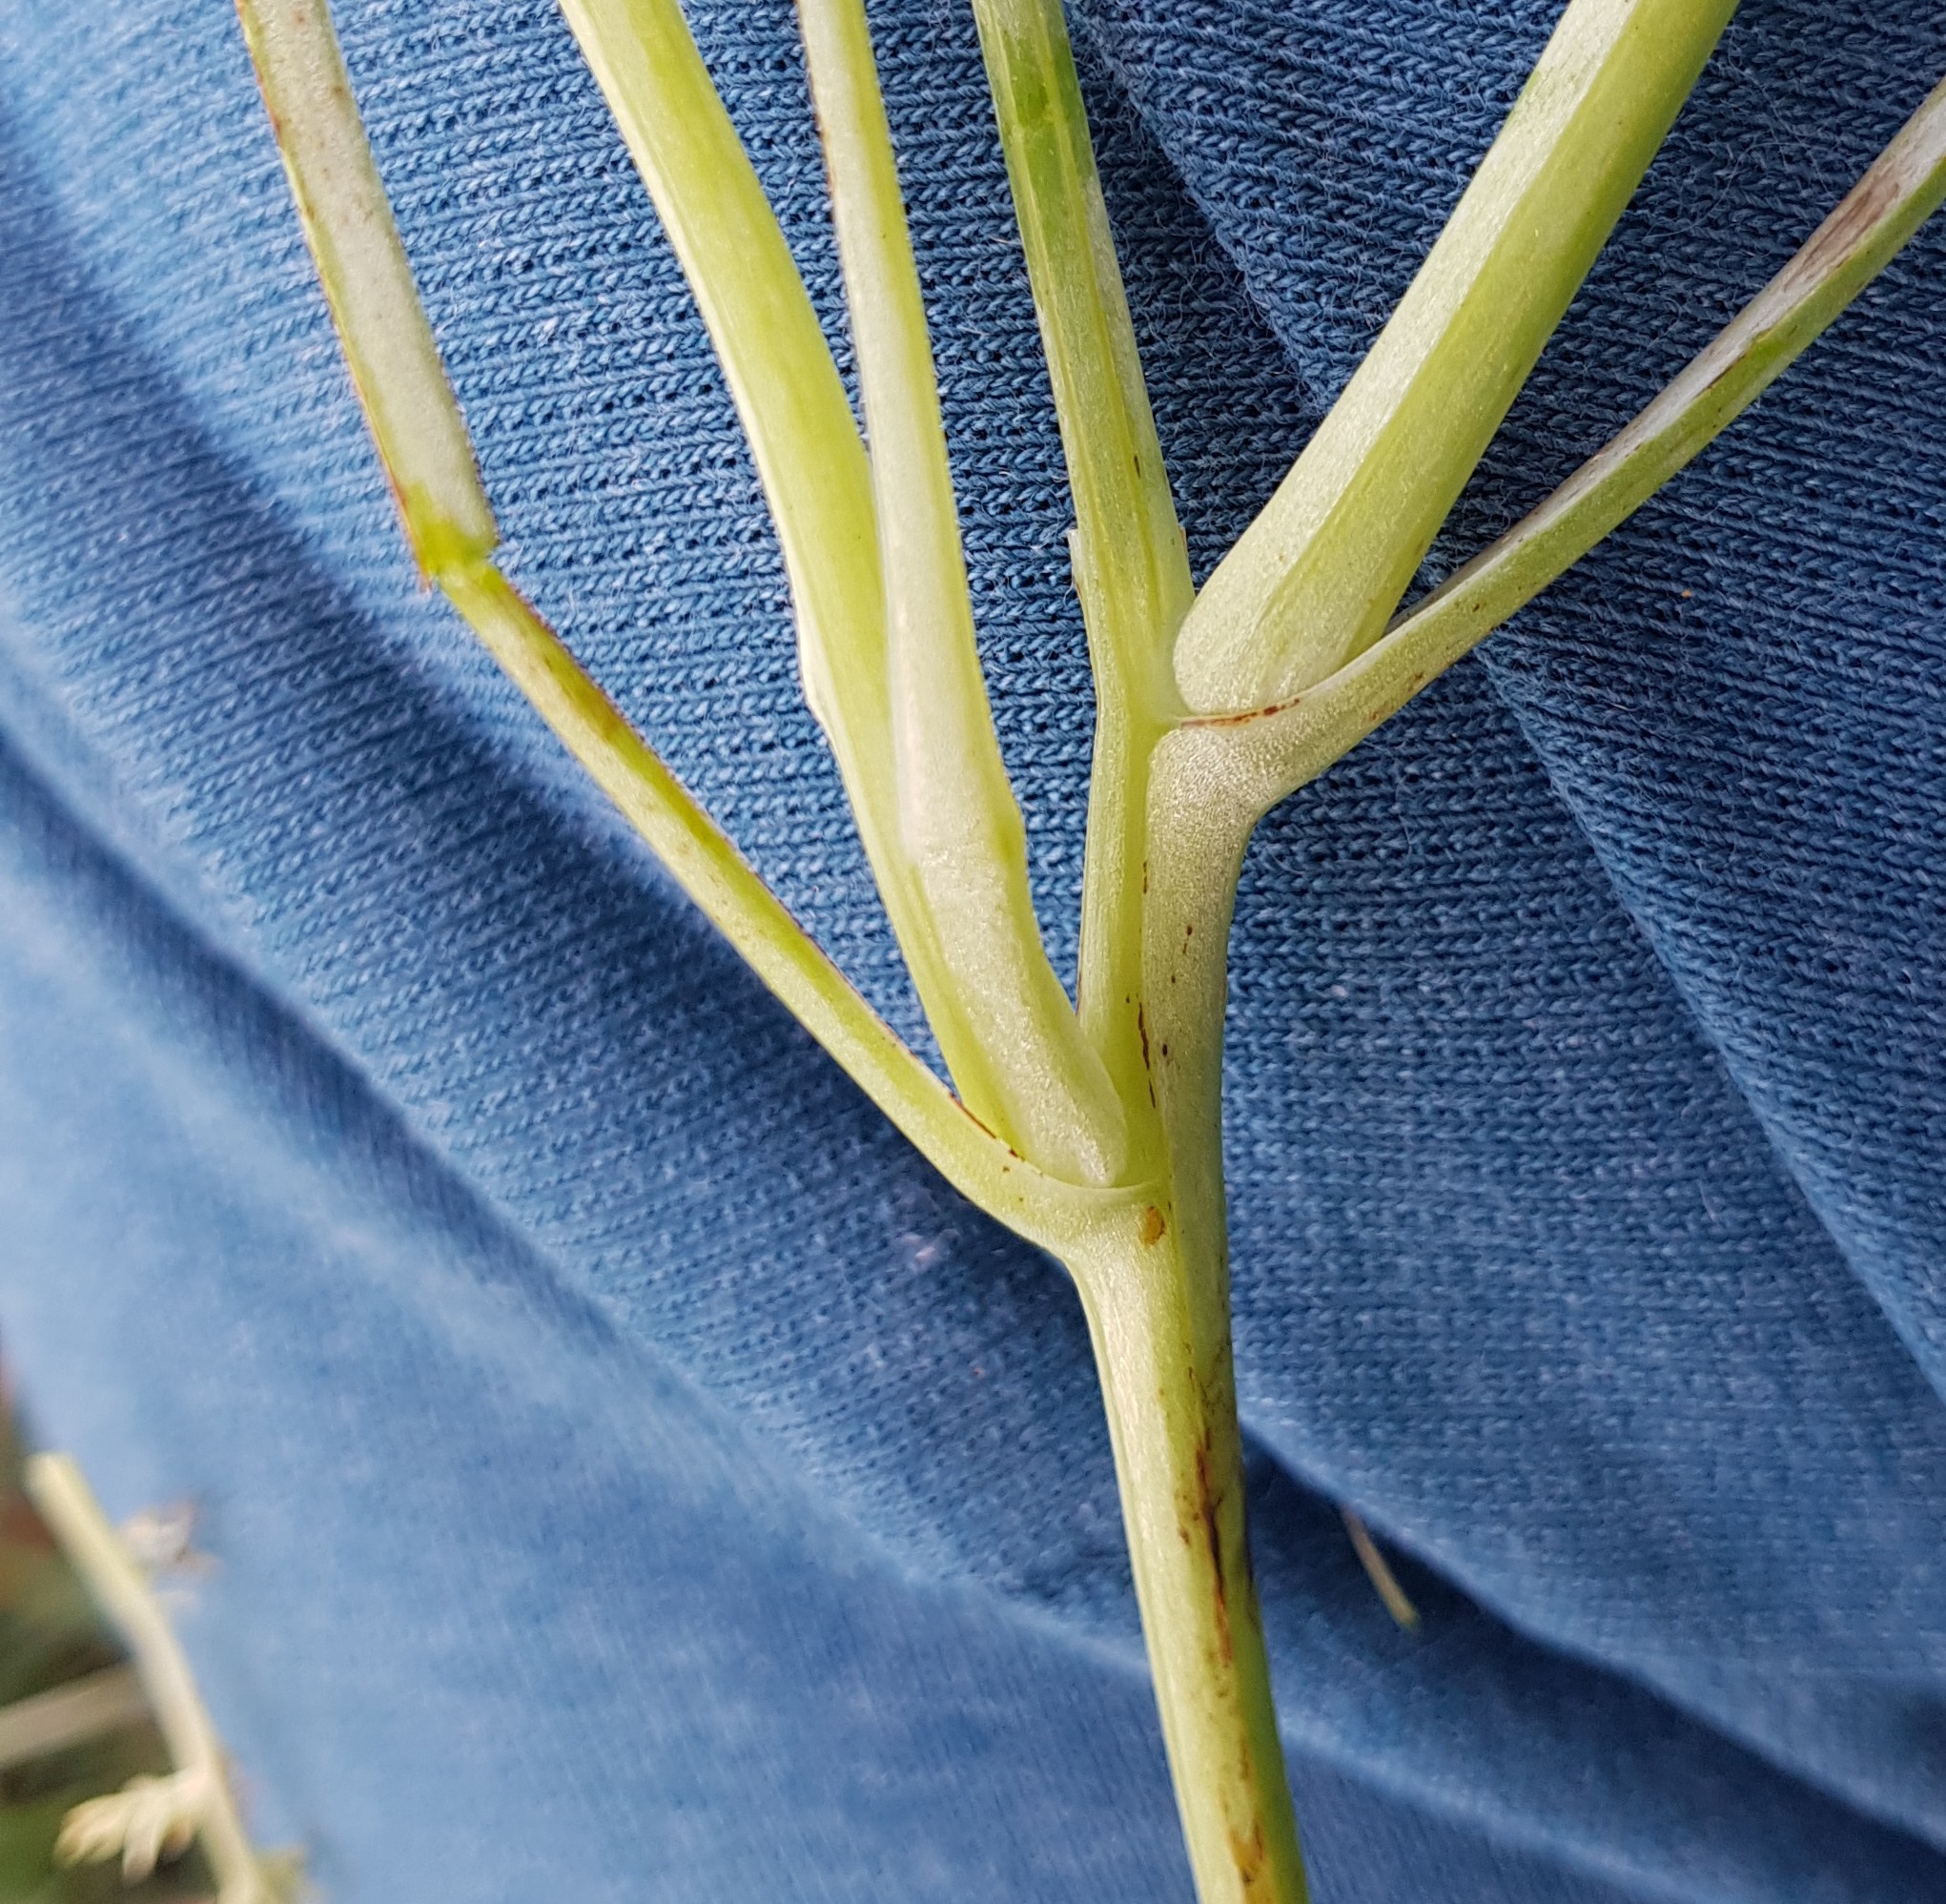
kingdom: Plantae
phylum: Tracheophyta
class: Magnoliopsida
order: Ranunculales
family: Papaveraceae
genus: Eschscholzia
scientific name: Eschscholzia californica
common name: California poppy
